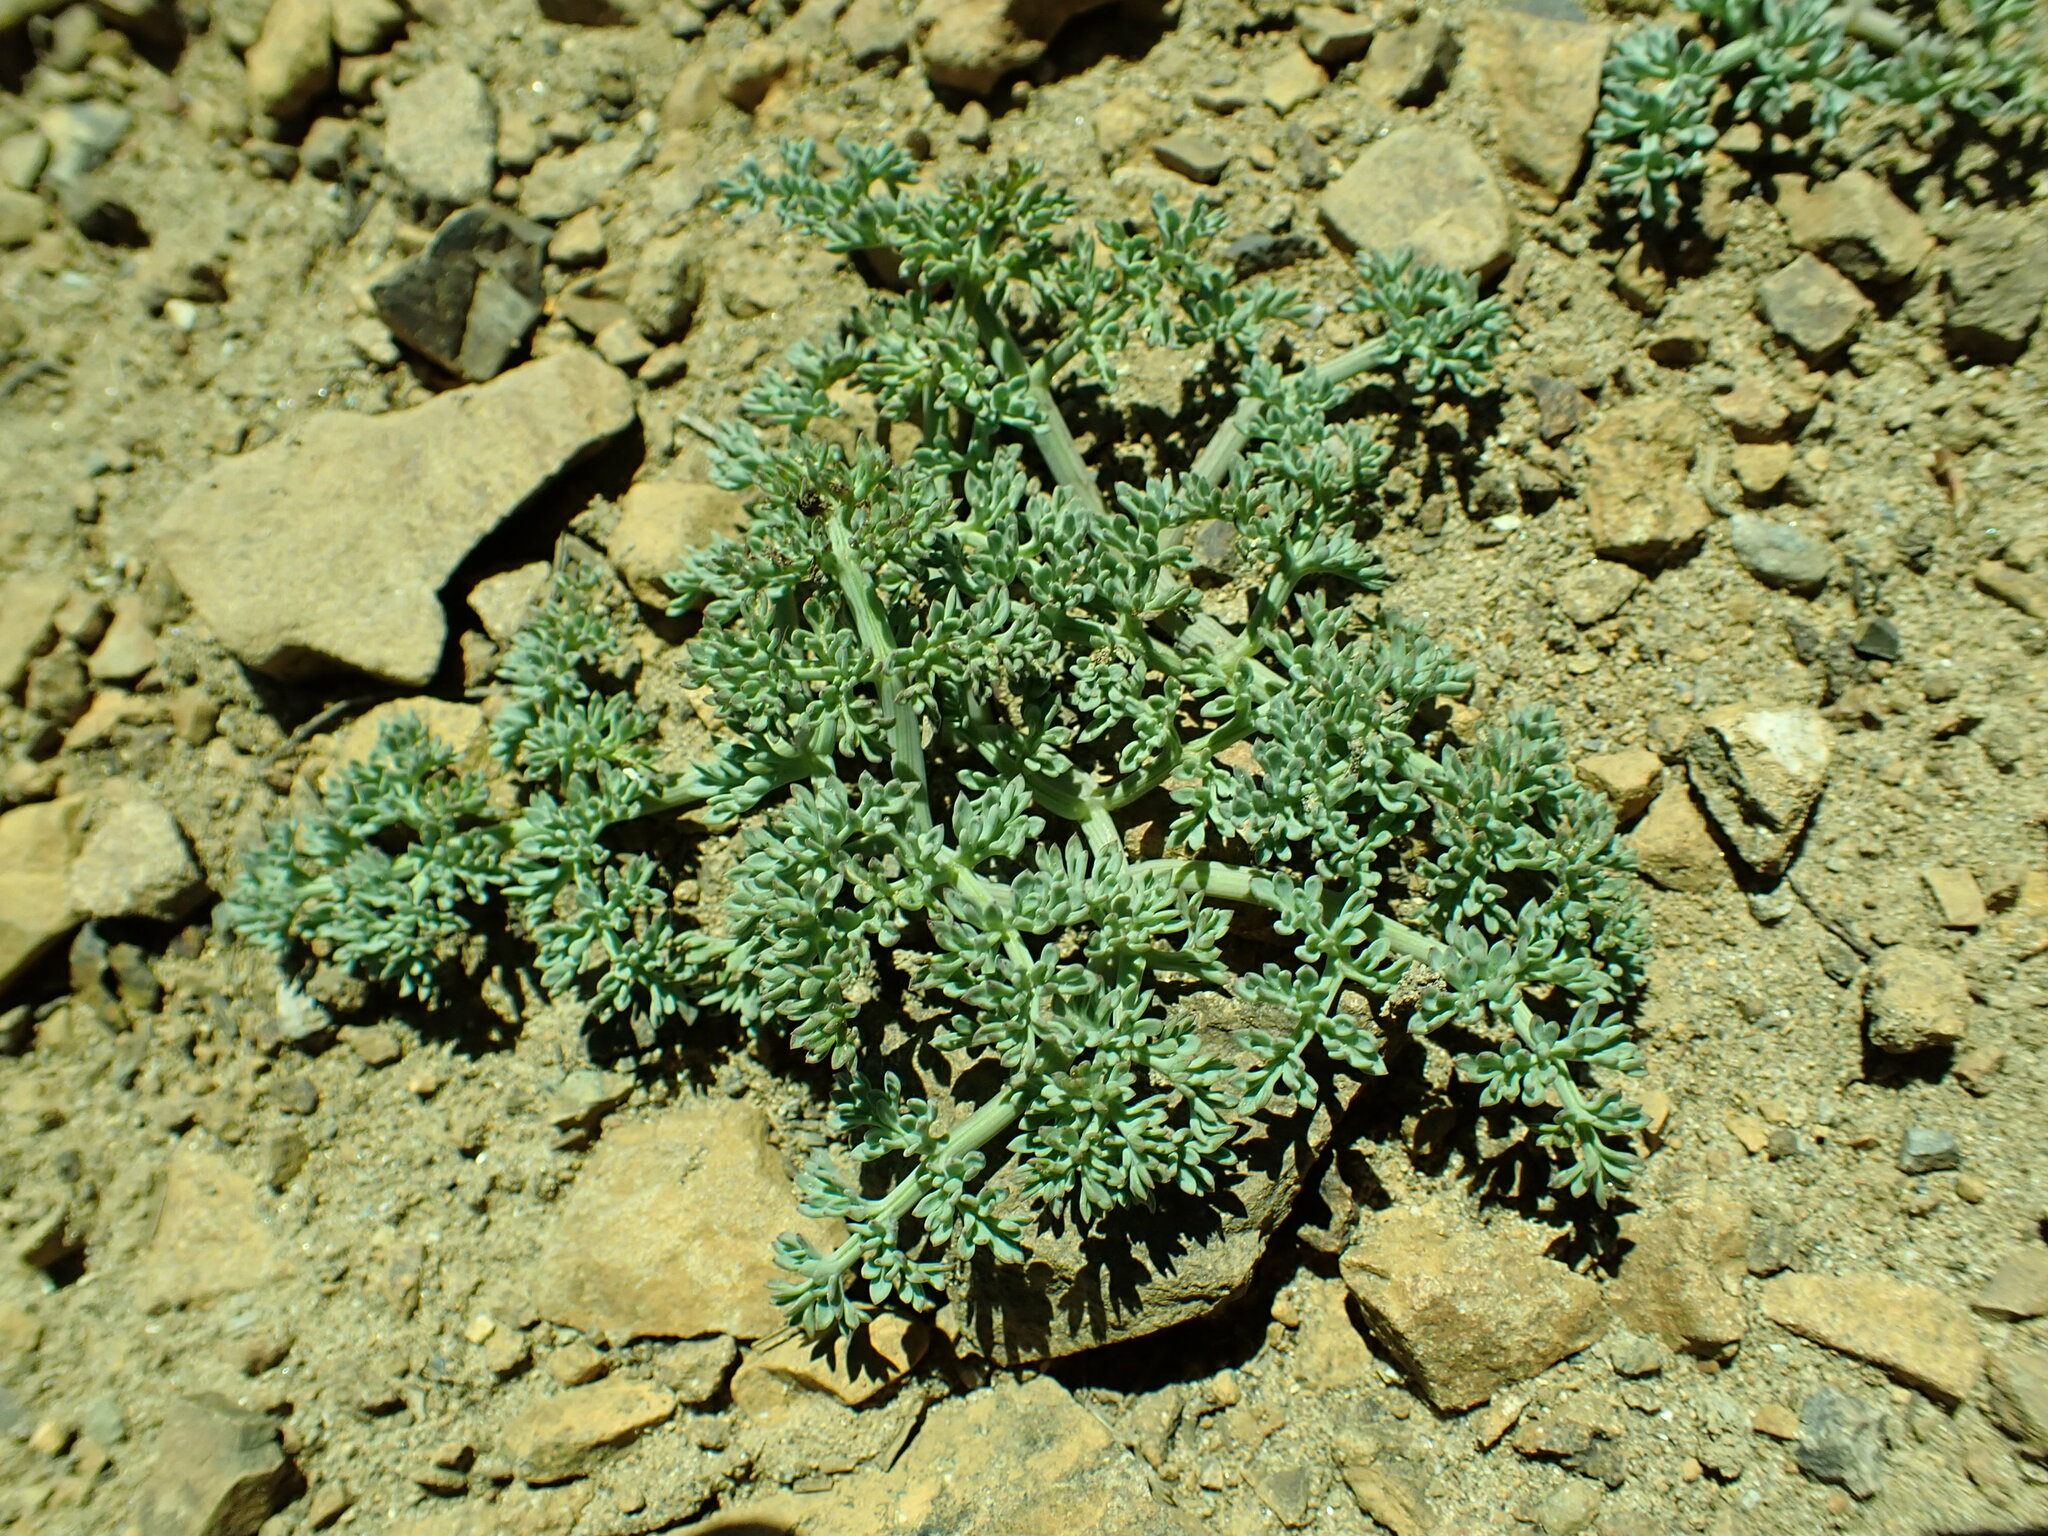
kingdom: Plantae
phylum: Tracheophyta
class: Magnoliopsida
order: Apiales
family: Apiaceae
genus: Lomatium
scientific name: Lomatium cuspidatum
